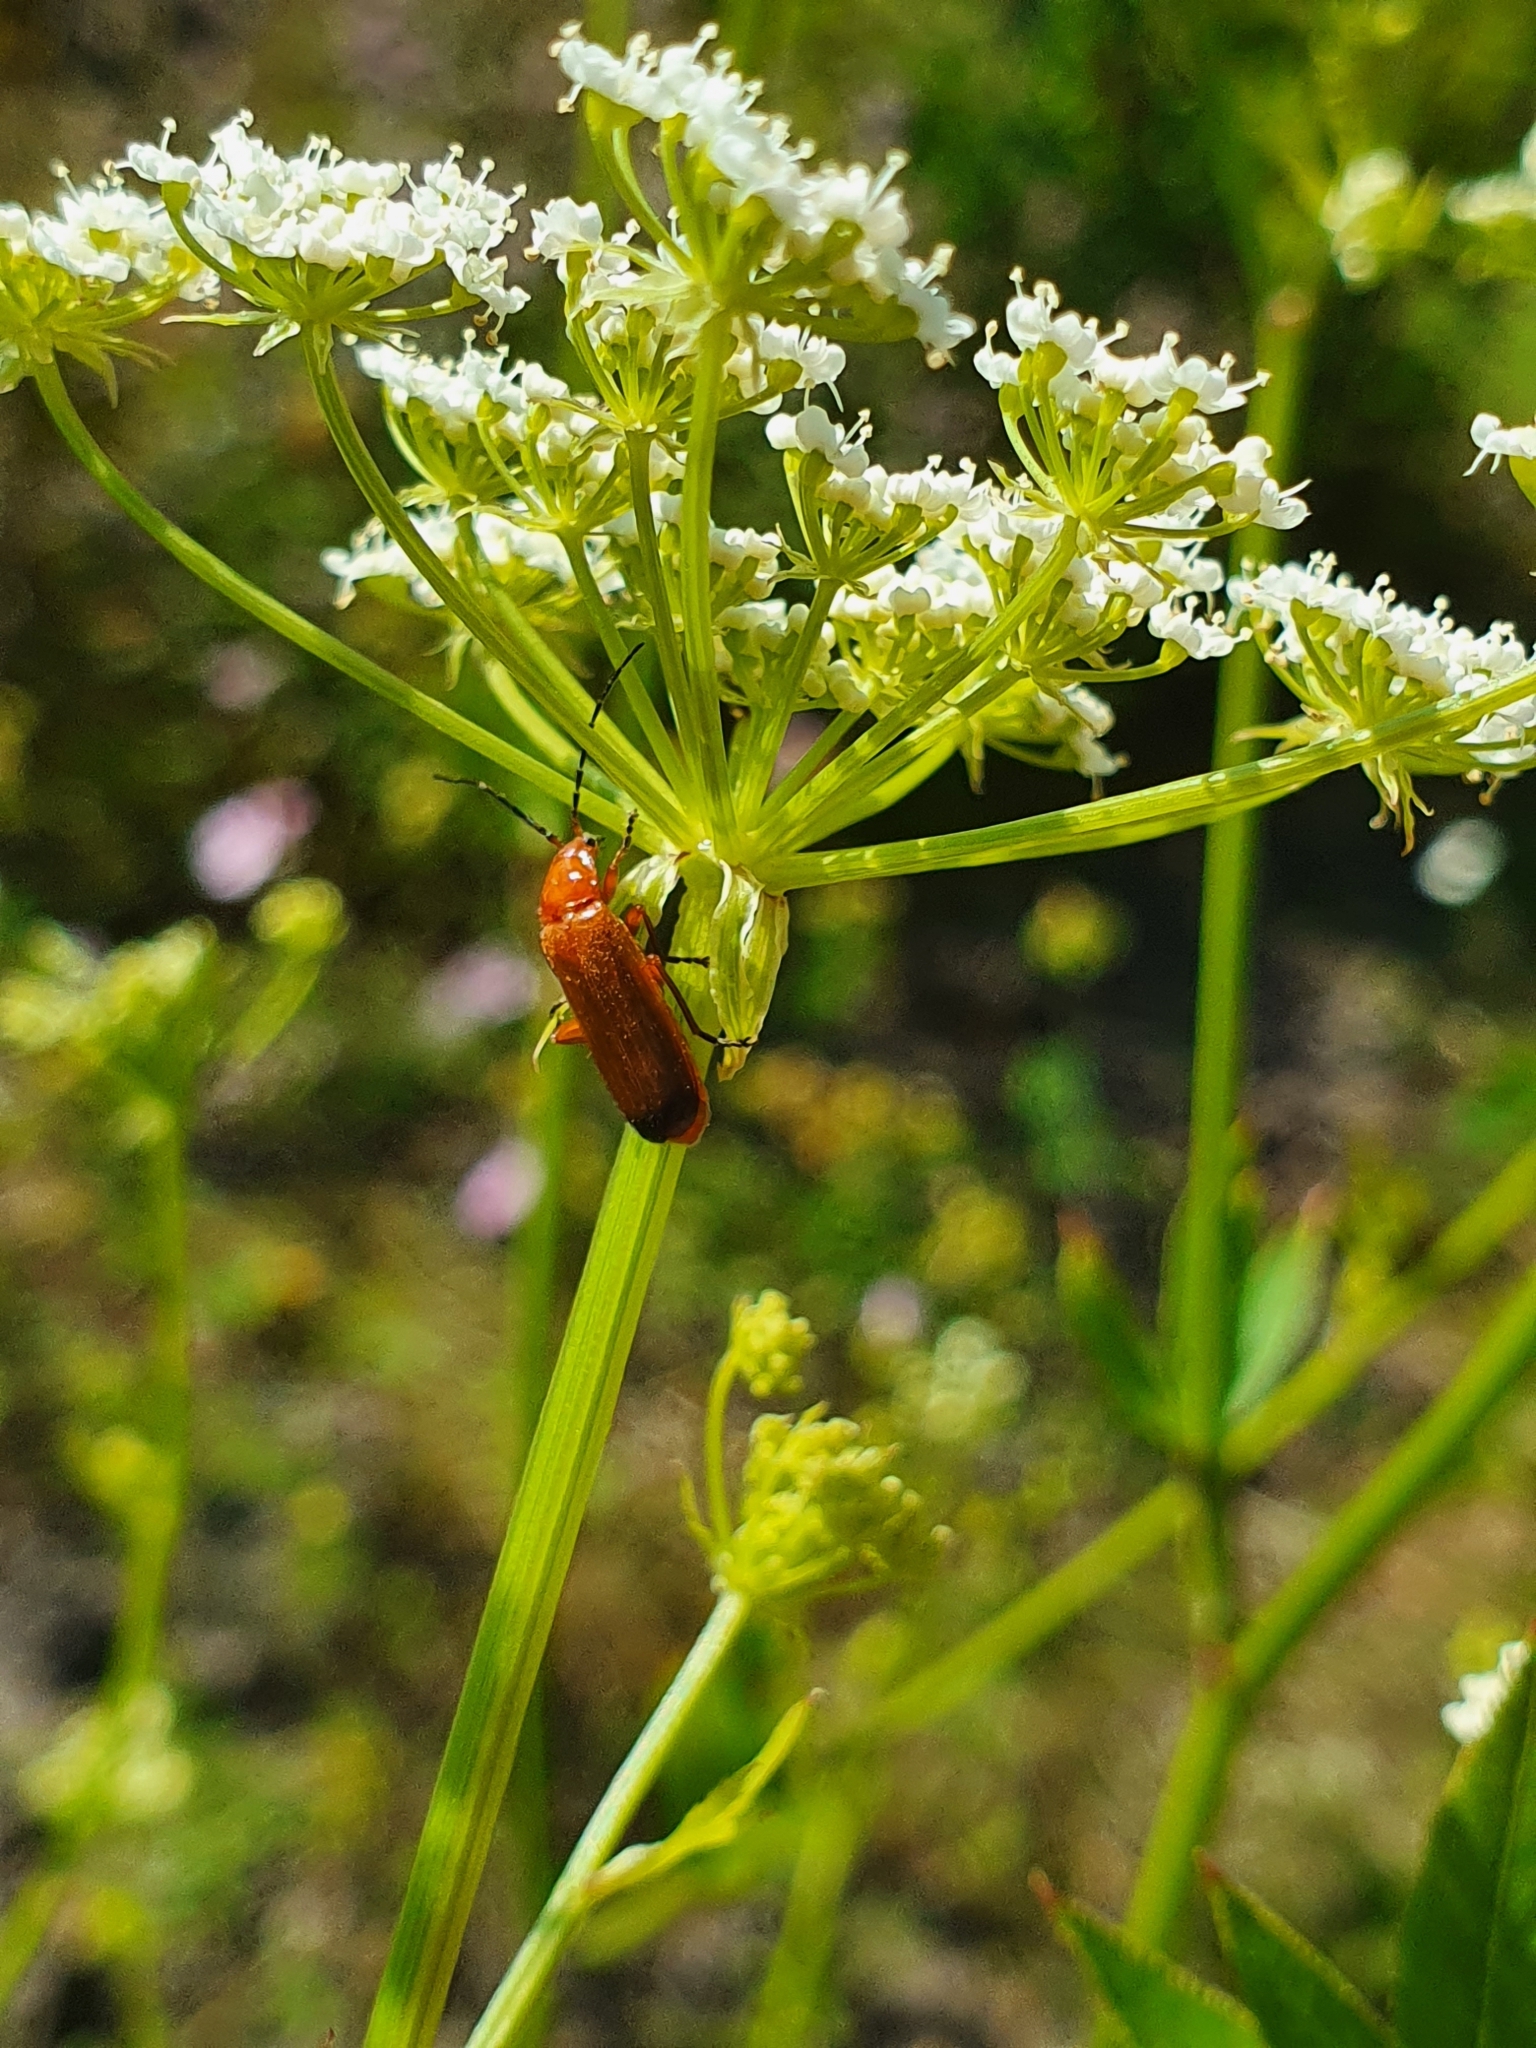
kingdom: Animalia
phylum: Arthropoda
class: Insecta
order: Coleoptera
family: Cantharidae
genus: Rhagonycha
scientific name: Rhagonycha fulva
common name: Common red soldier beetle
